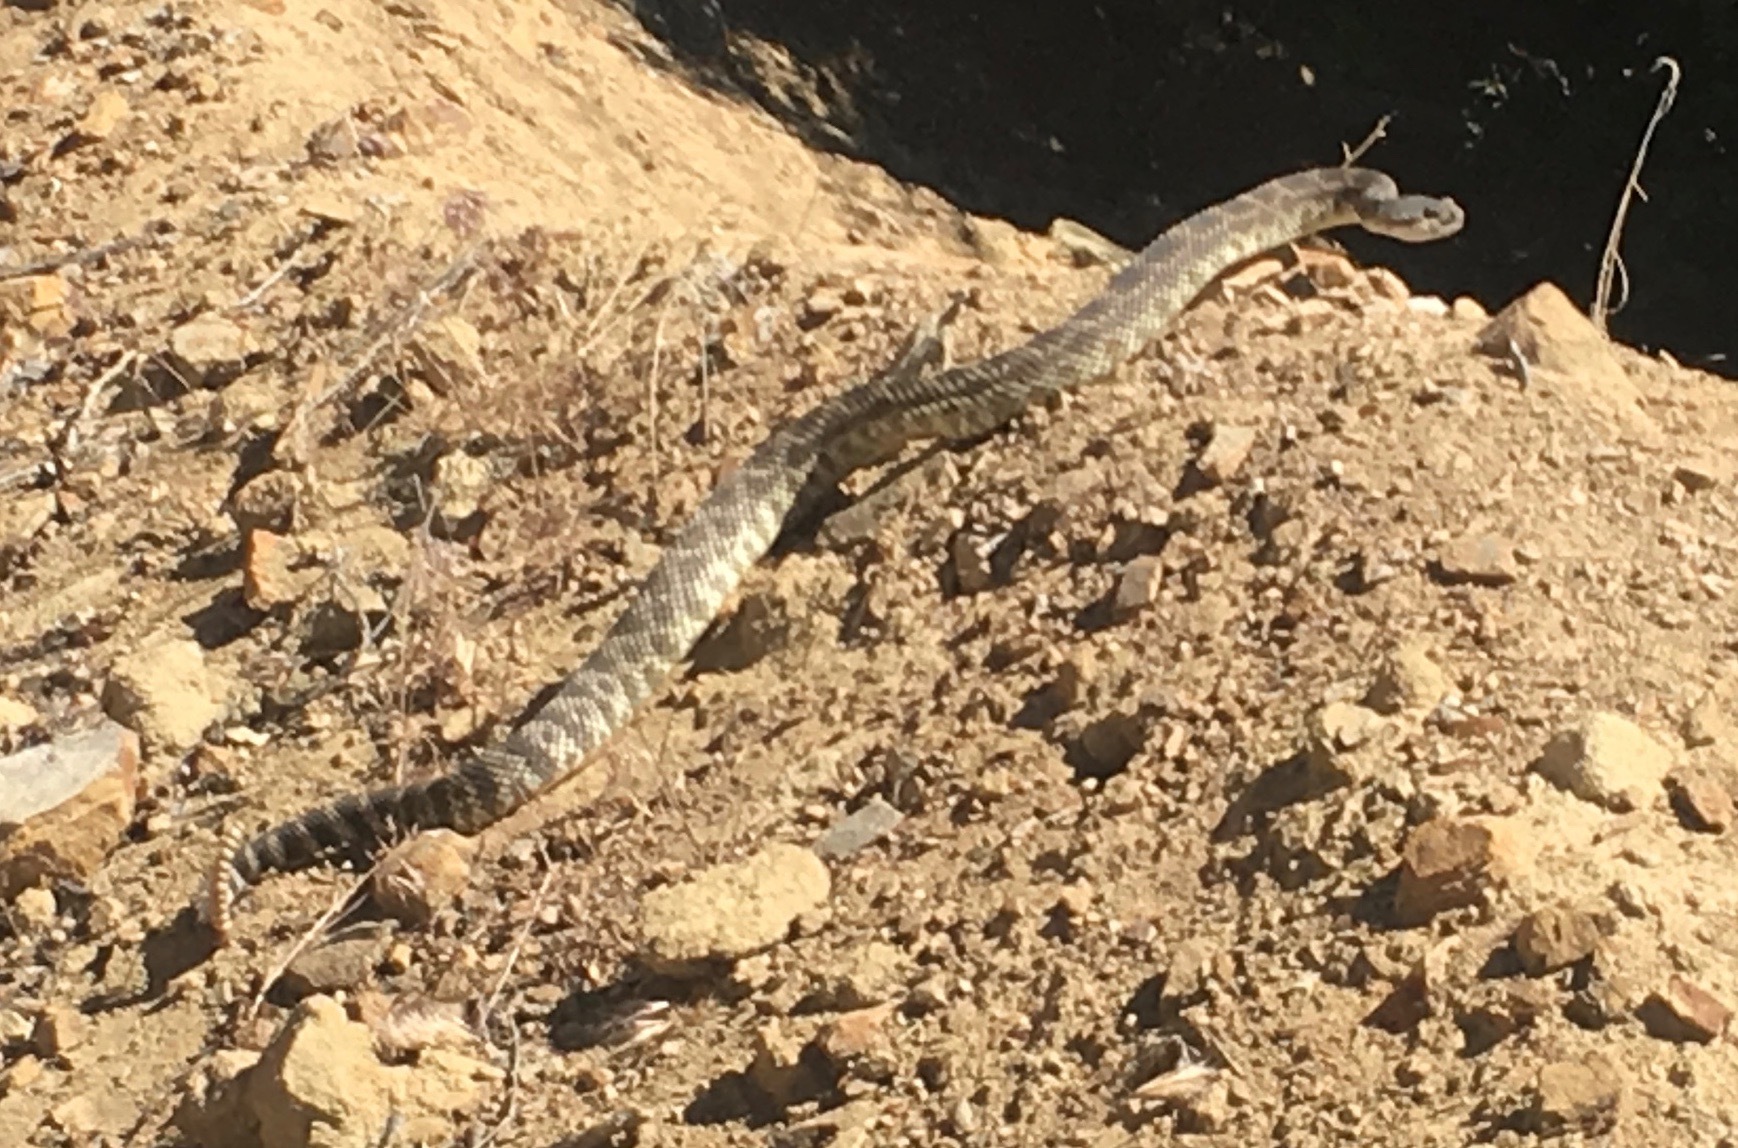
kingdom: Animalia
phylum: Chordata
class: Squamata
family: Viperidae
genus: Crotalus
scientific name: Crotalus oreganus
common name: Abyssus
